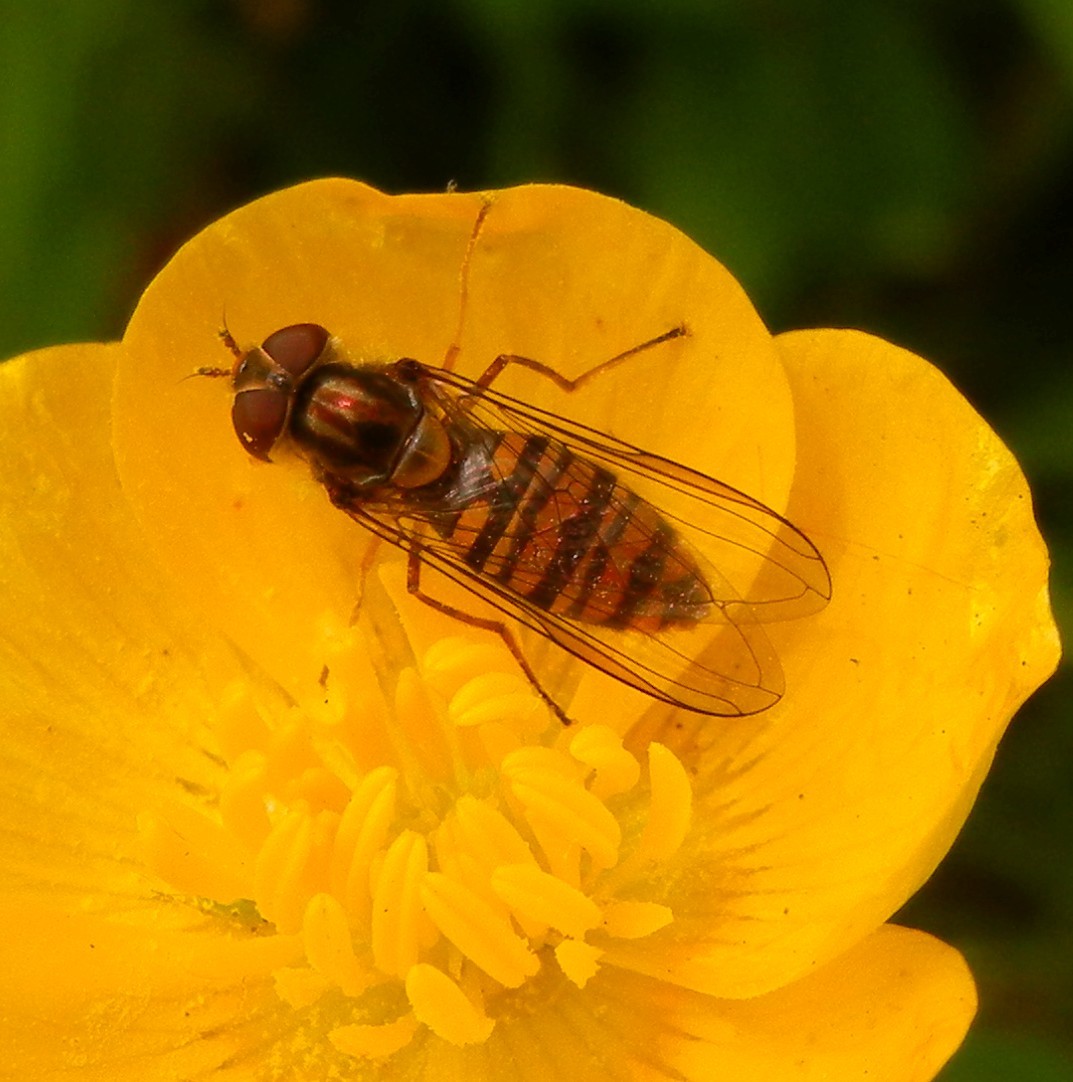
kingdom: Animalia
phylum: Arthropoda
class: Insecta
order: Diptera
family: Syrphidae
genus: Episyrphus
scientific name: Episyrphus balteatus
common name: Marmalade hoverfly
